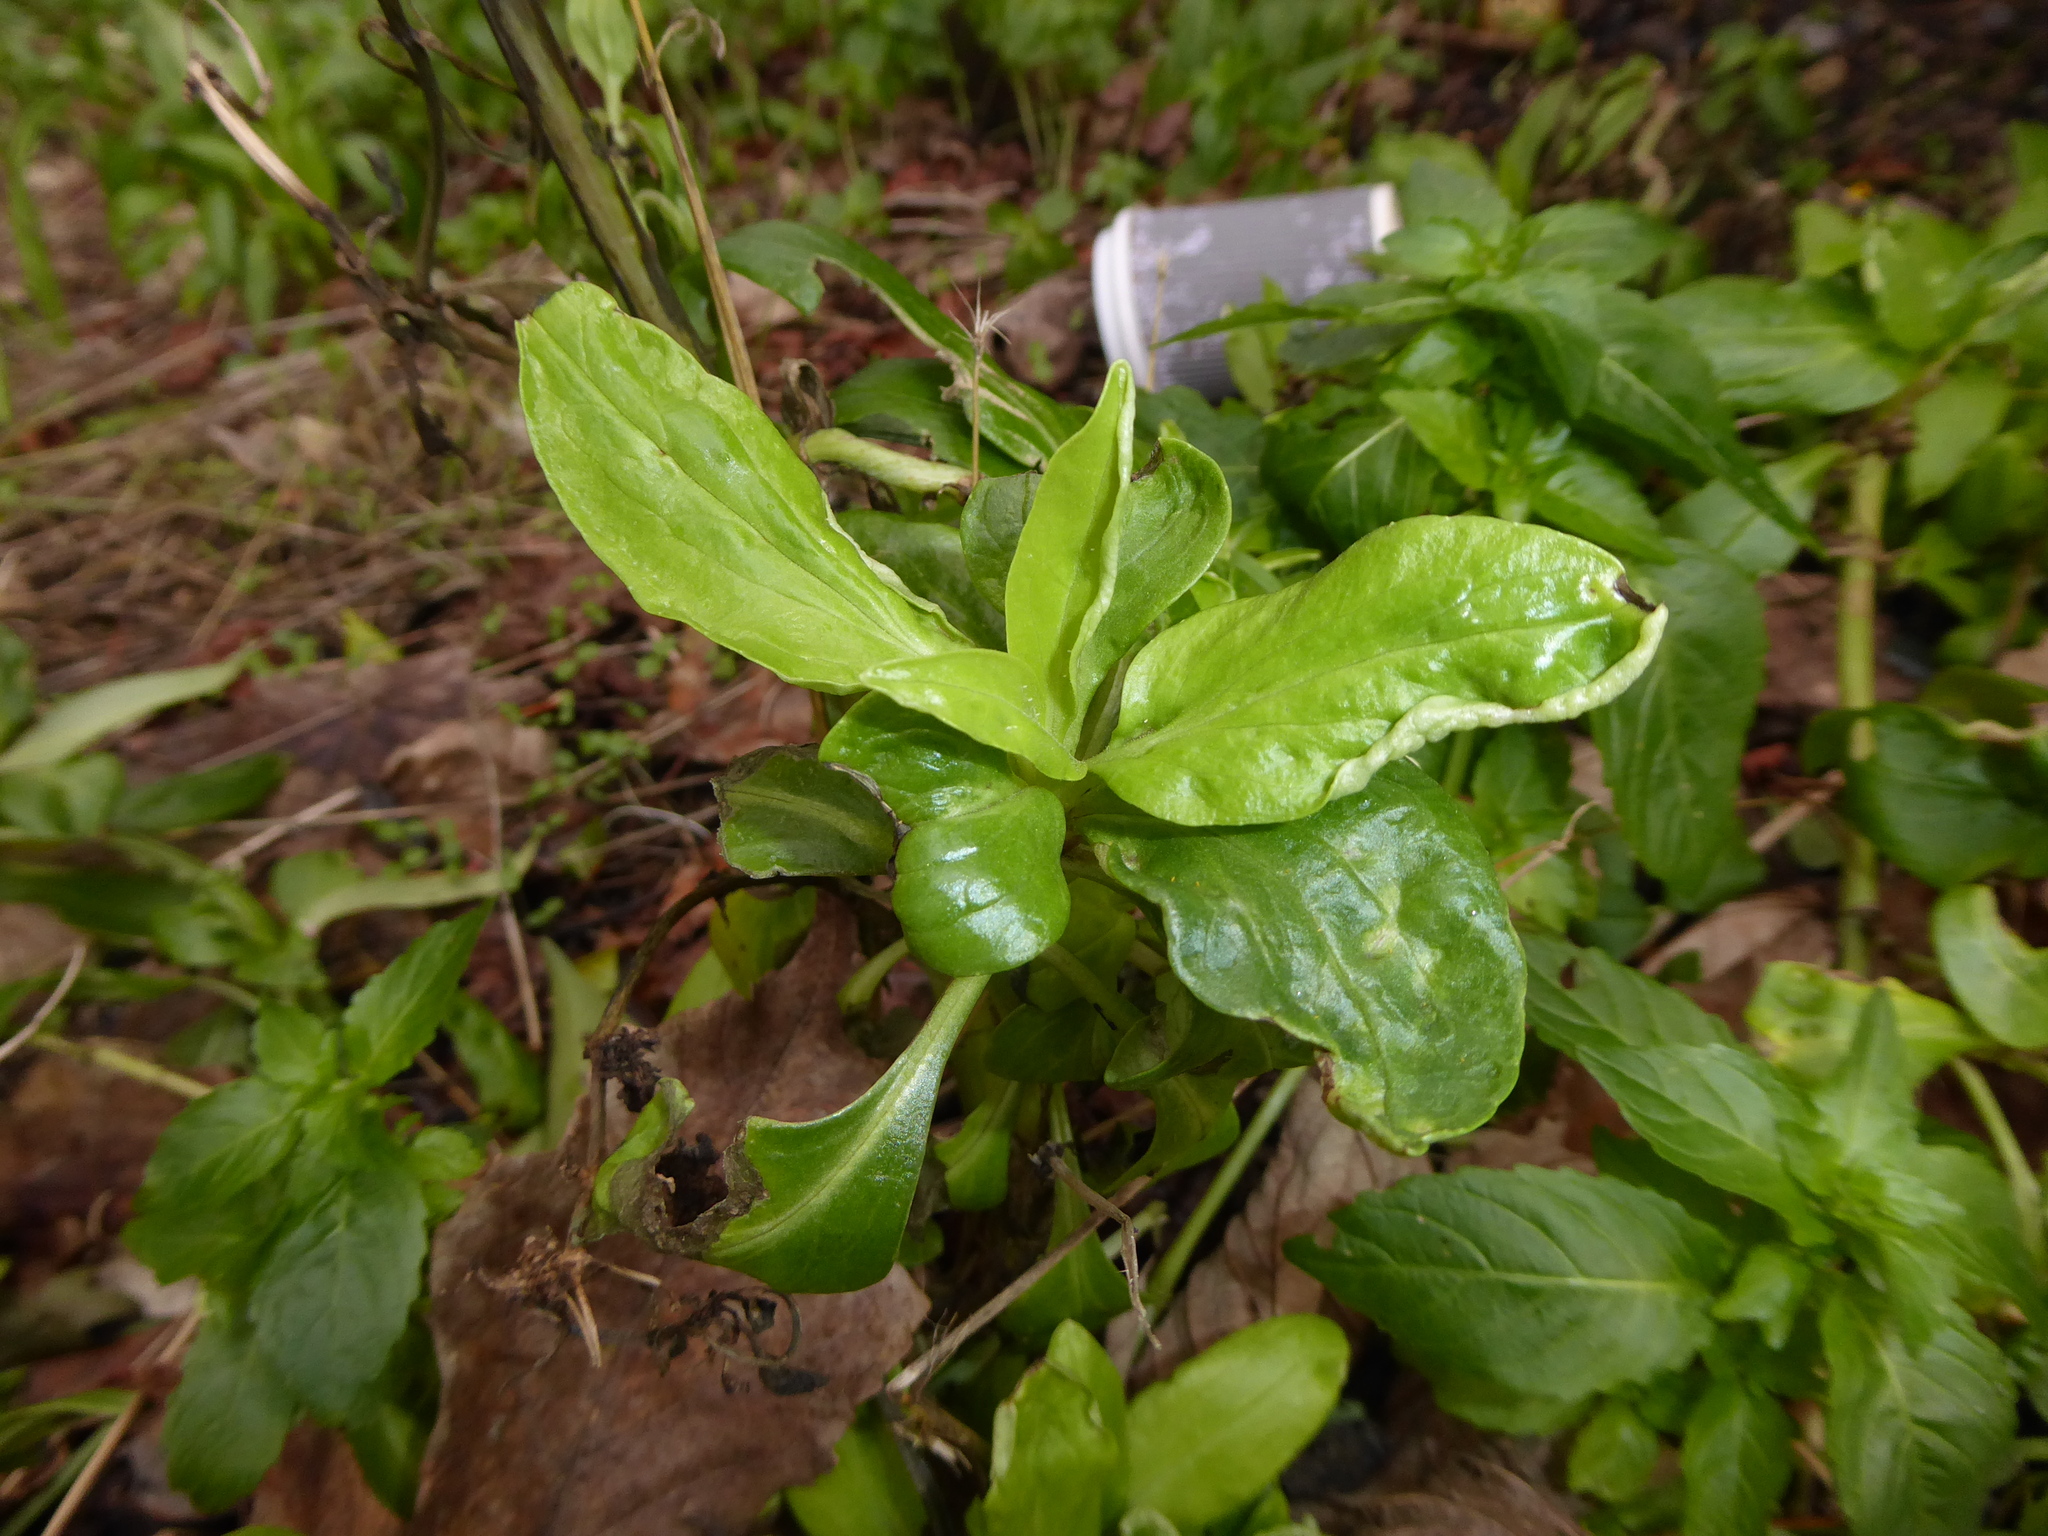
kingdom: Animalia
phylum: Arthropoda
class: Insecta
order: Hemiptera
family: Triozidae
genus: Trioza
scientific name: Trioza centranthi
